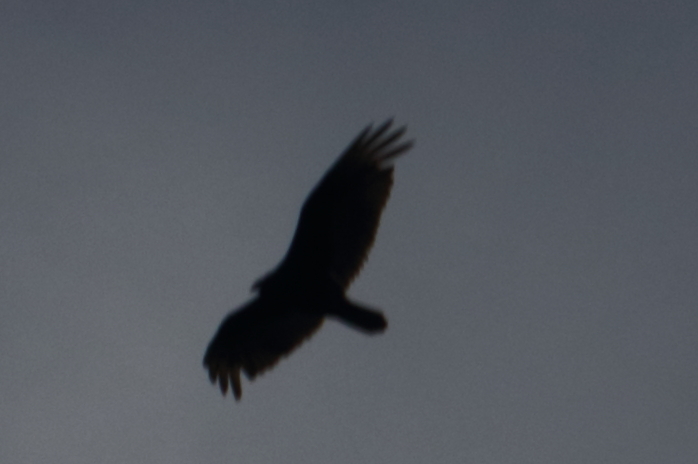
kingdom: Animalia
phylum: Chordata
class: Aves
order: Accipitriformes
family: Cathartidae
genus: Coragyps
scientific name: Coragyps atratus
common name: Black vulture
